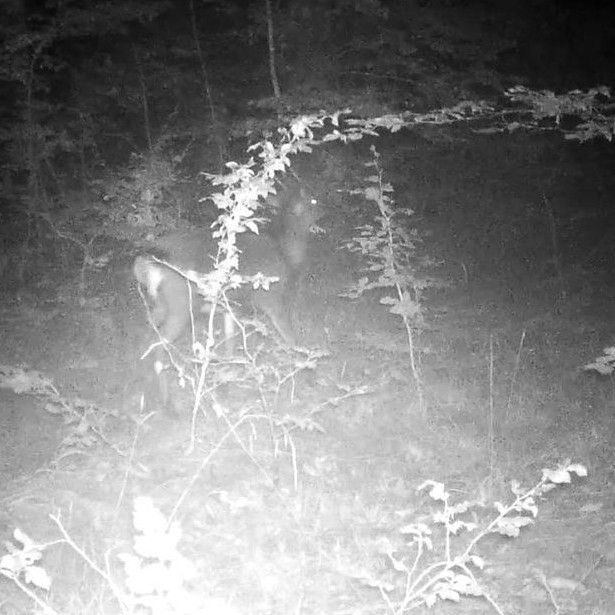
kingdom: Animalia
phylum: Chordata
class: Mammalia
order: Artiodactyla
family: Cervidae
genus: Dama
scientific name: Dama dama
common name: Fallow deer
